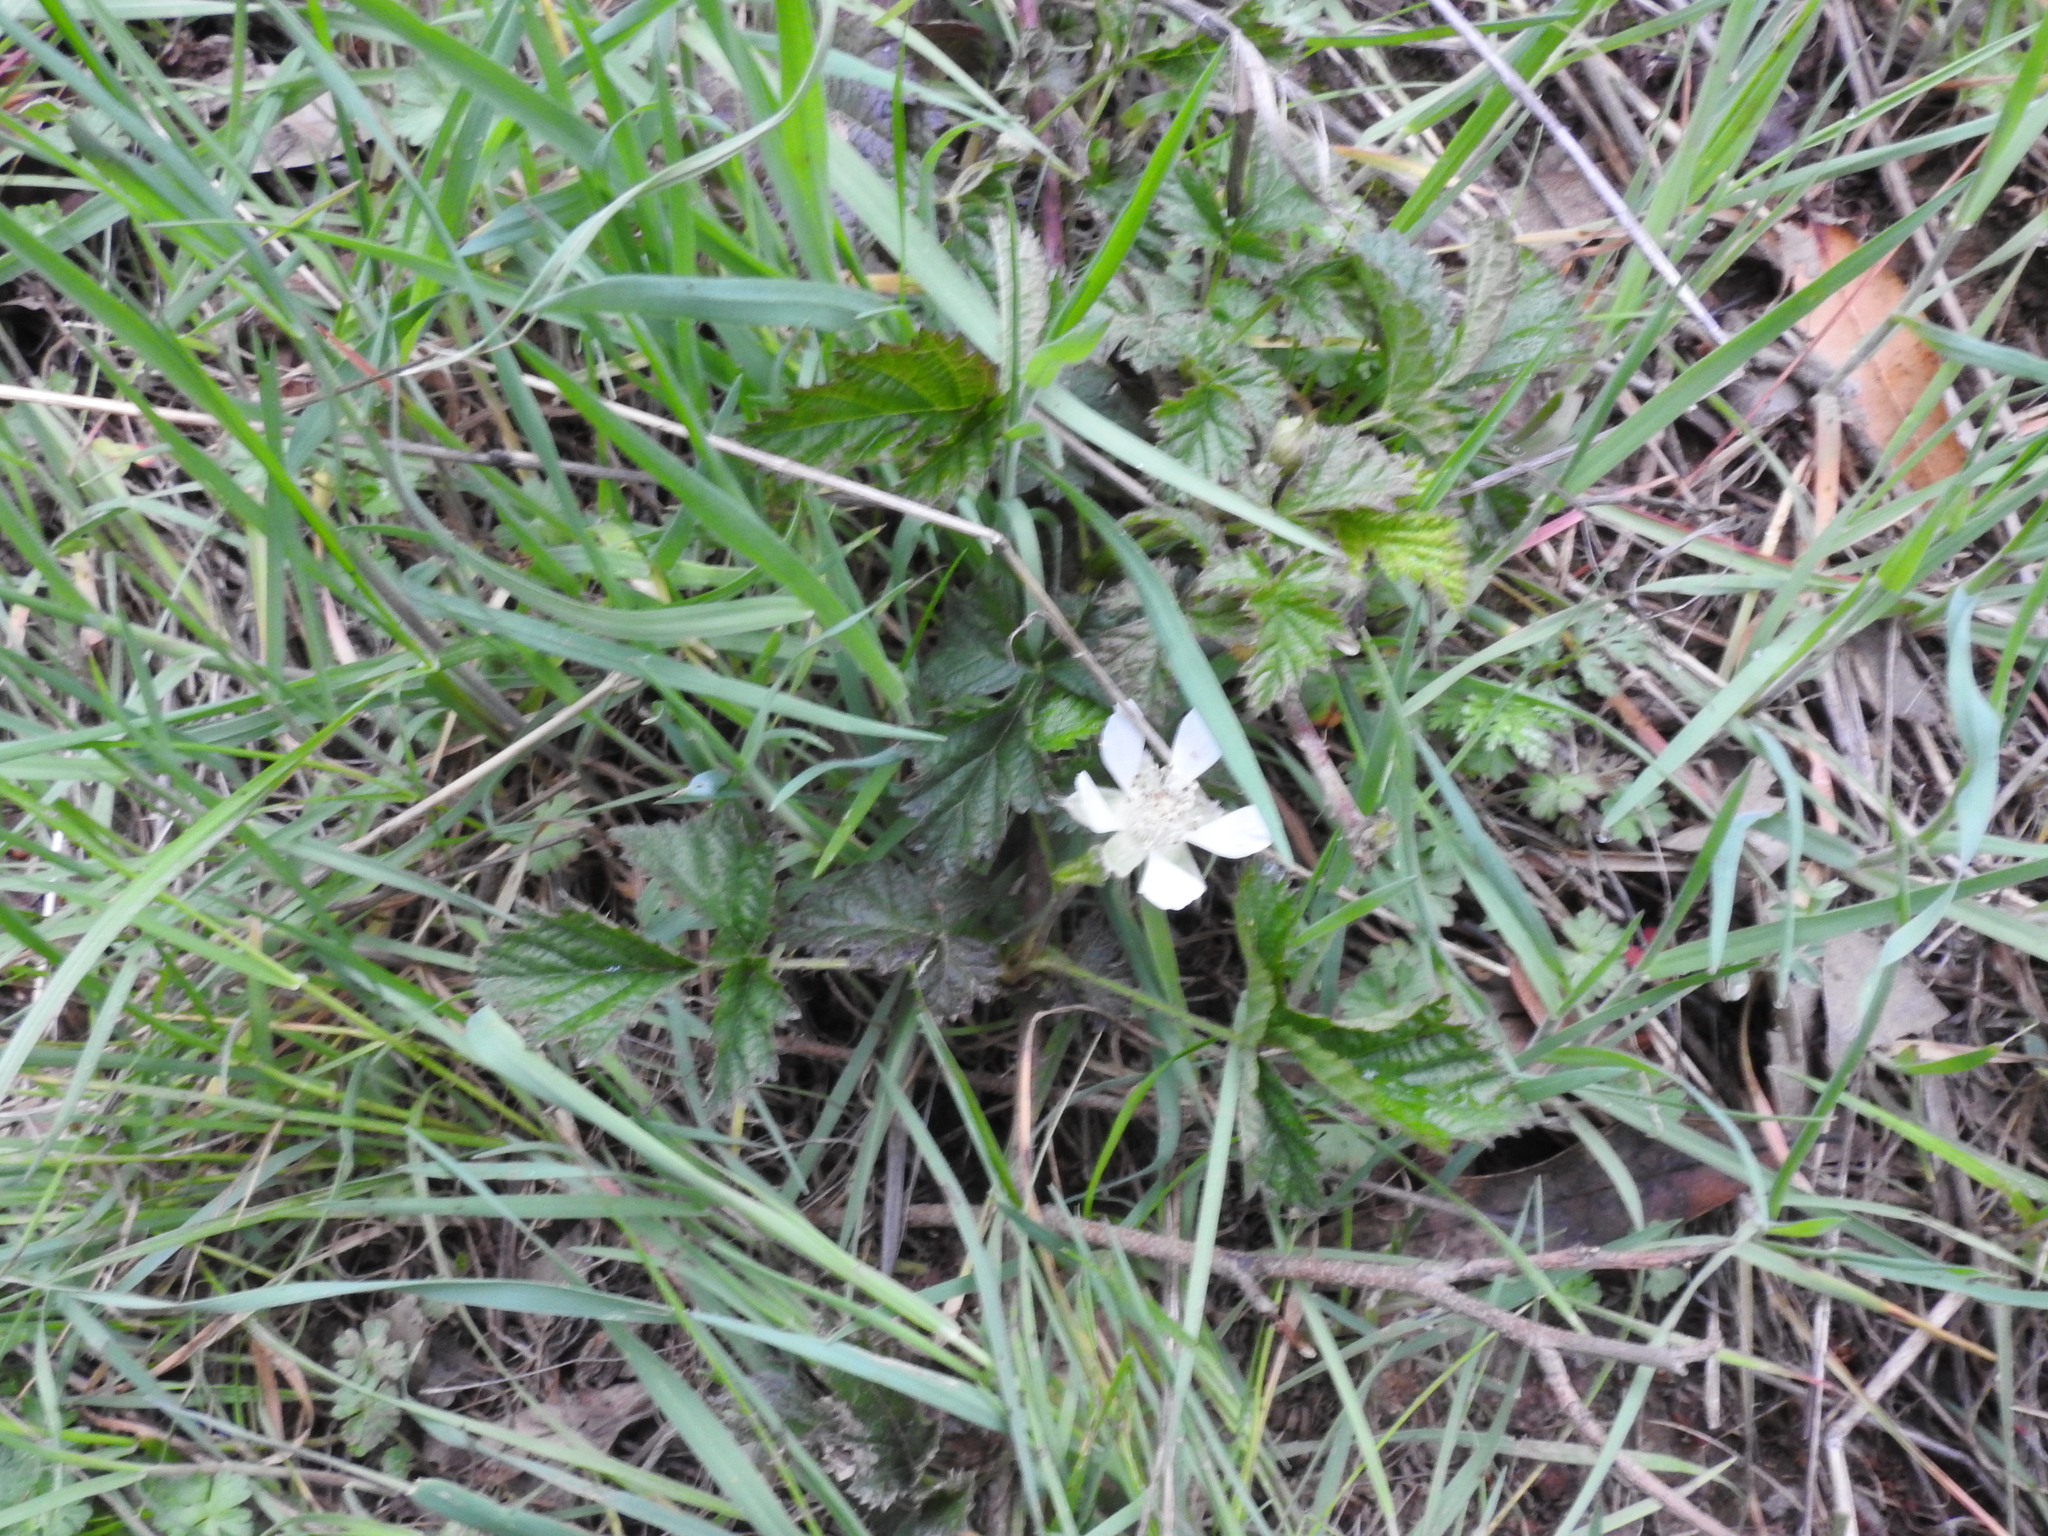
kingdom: Plantae
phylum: Tracheophyta
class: Magnoliopsida
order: Rosales
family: Rosaceae
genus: Rubus
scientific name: Rubus ursinus
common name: Pacific blackberry
